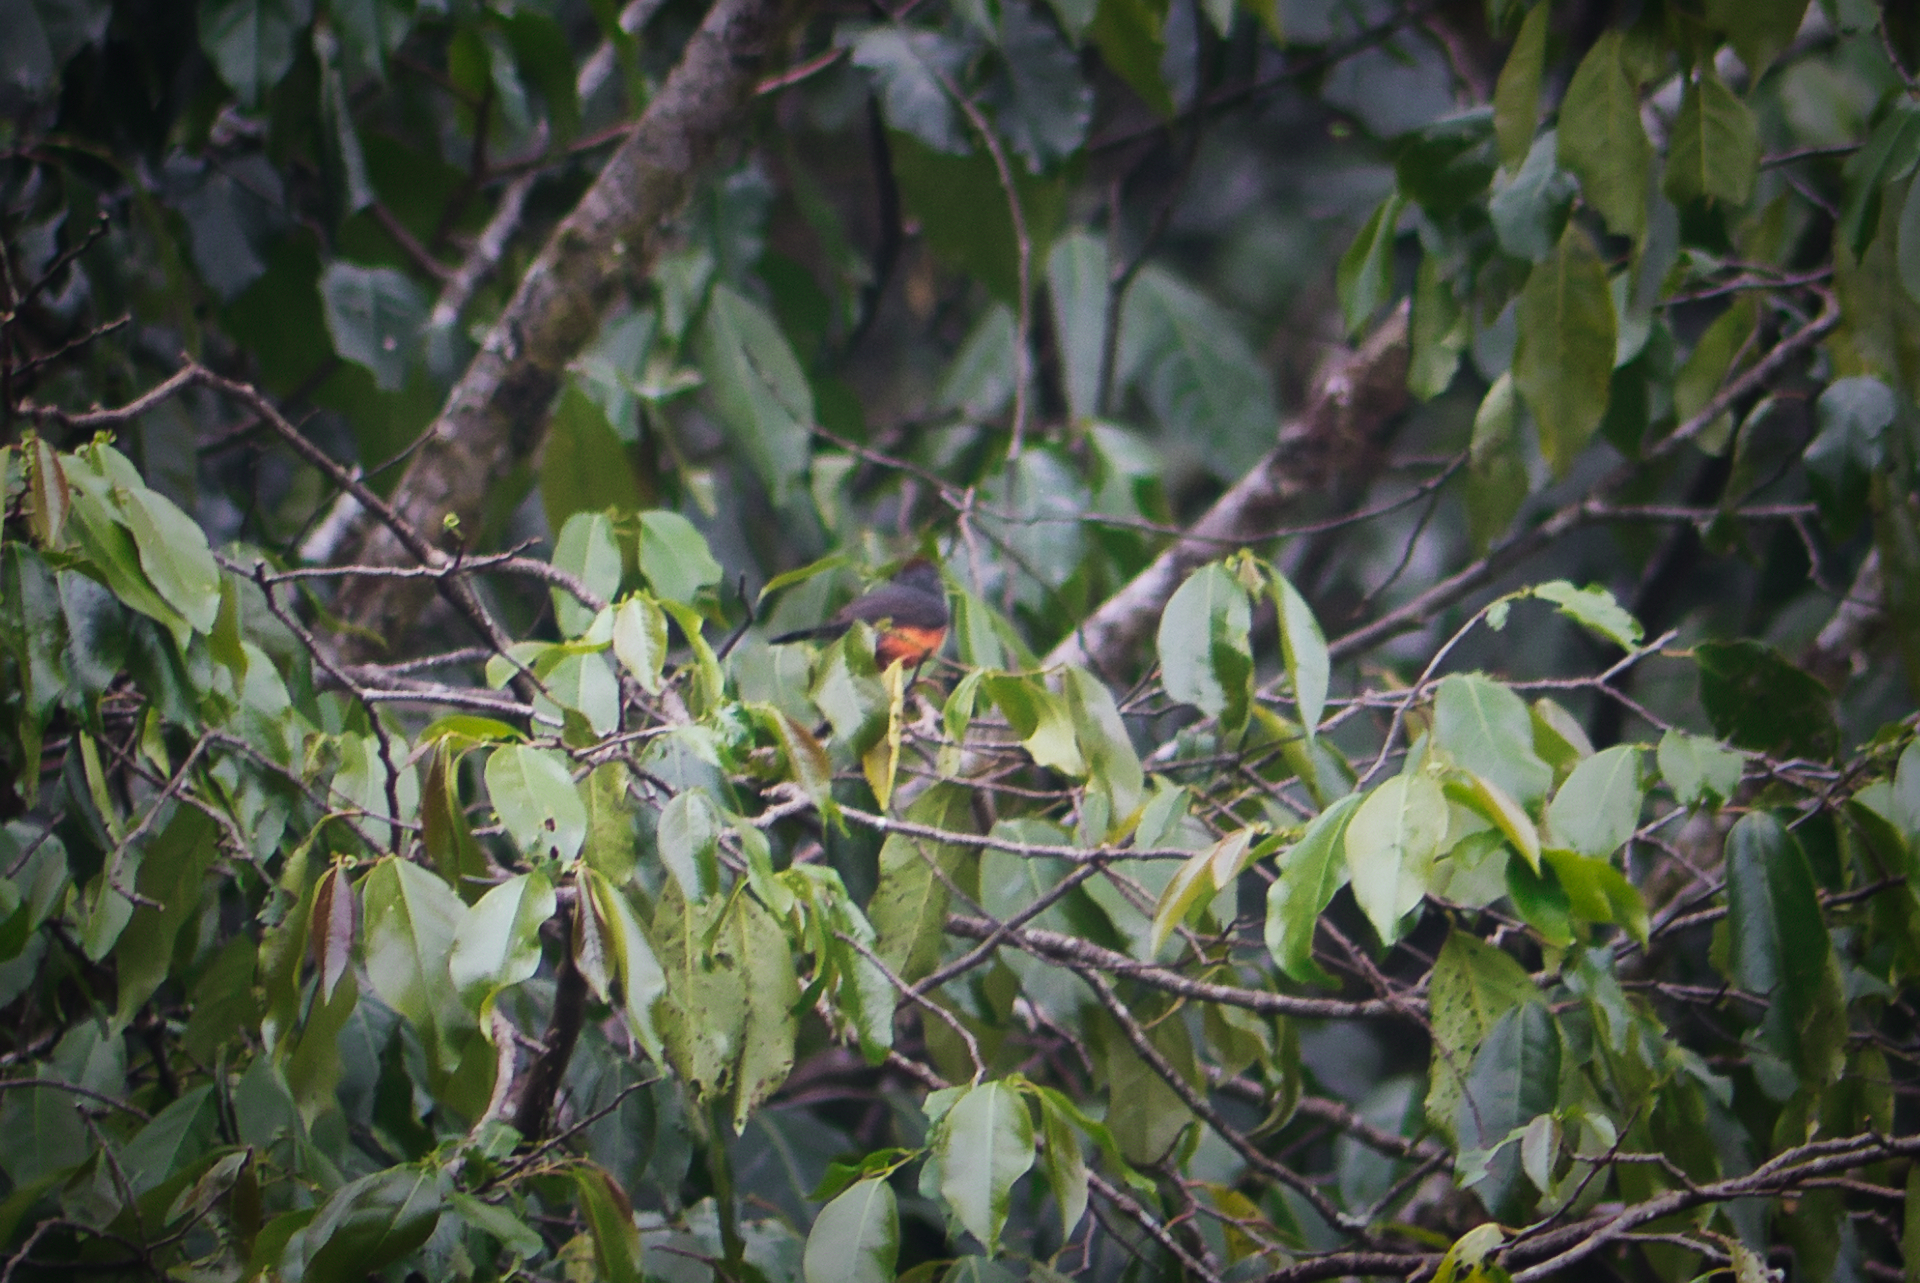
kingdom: Animalia
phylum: Chordata
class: Aves
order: Passeriformes
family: Parulidae
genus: Myioborus
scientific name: Myioborus miniatus
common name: Slate-throated redstart
